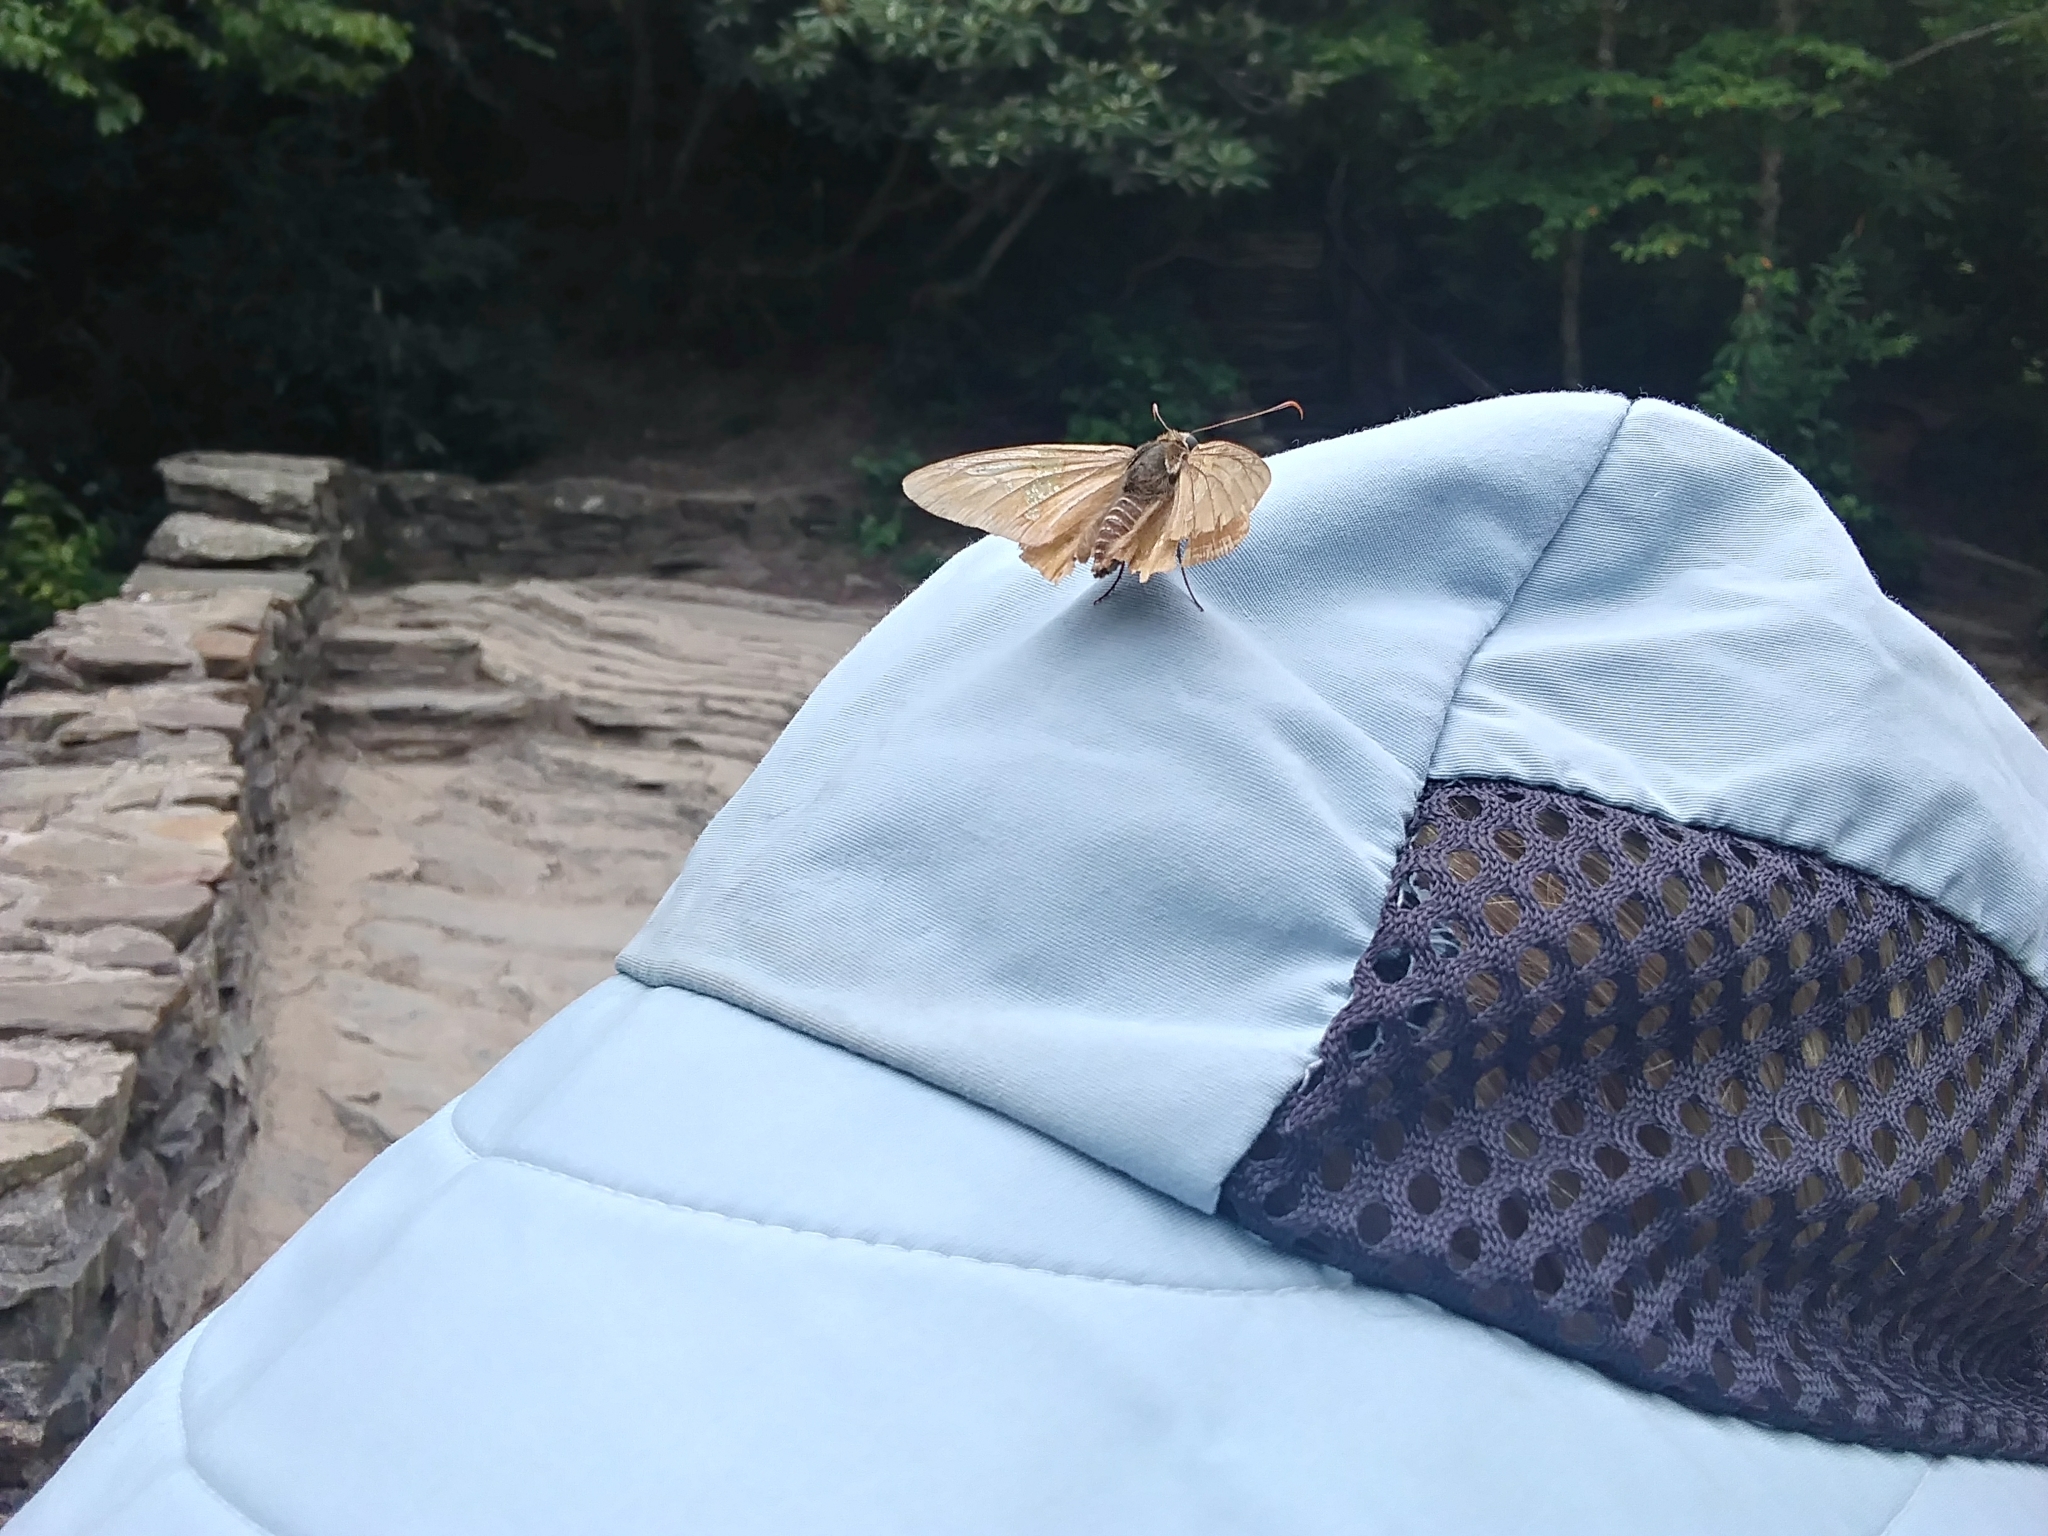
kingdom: Animalia
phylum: Arthropoda
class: Insecta
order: Lepidoptera
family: Hesperiidae
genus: Epargyreus
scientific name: Epargyreus clarus
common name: Silver-spotted skipper
